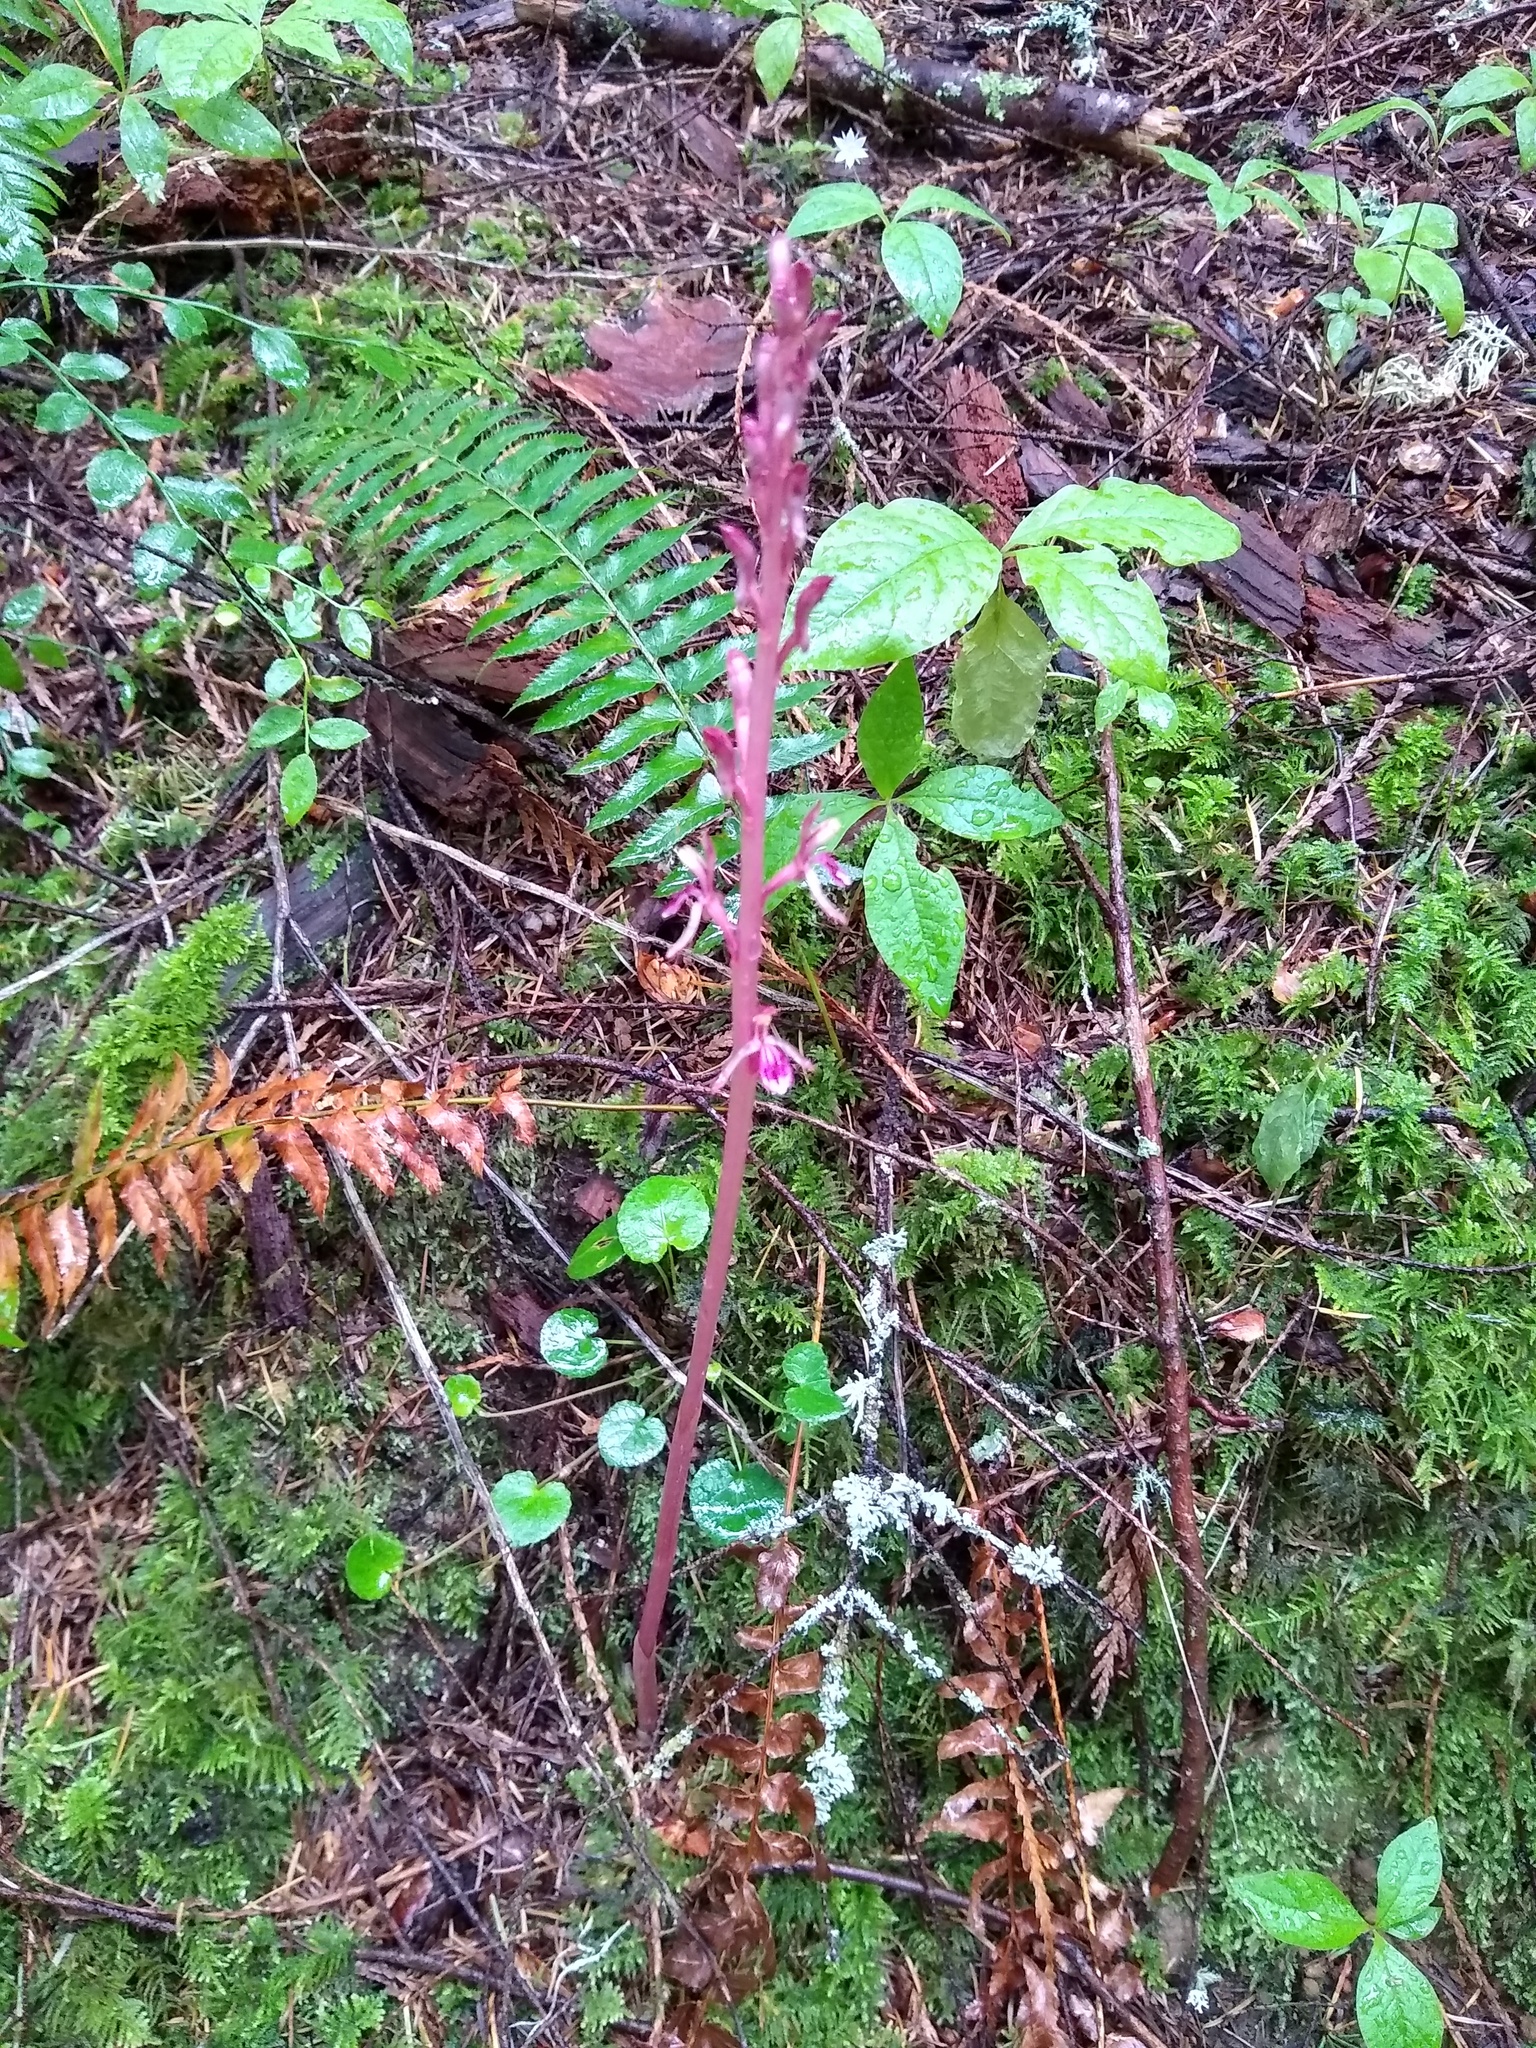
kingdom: Plantae
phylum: Tracheophyta
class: Liliopsida
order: Asparagales
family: Orchidaceae
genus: Corallorhiza
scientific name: Corallorhiza mertensiana
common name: Pacific coralroot
